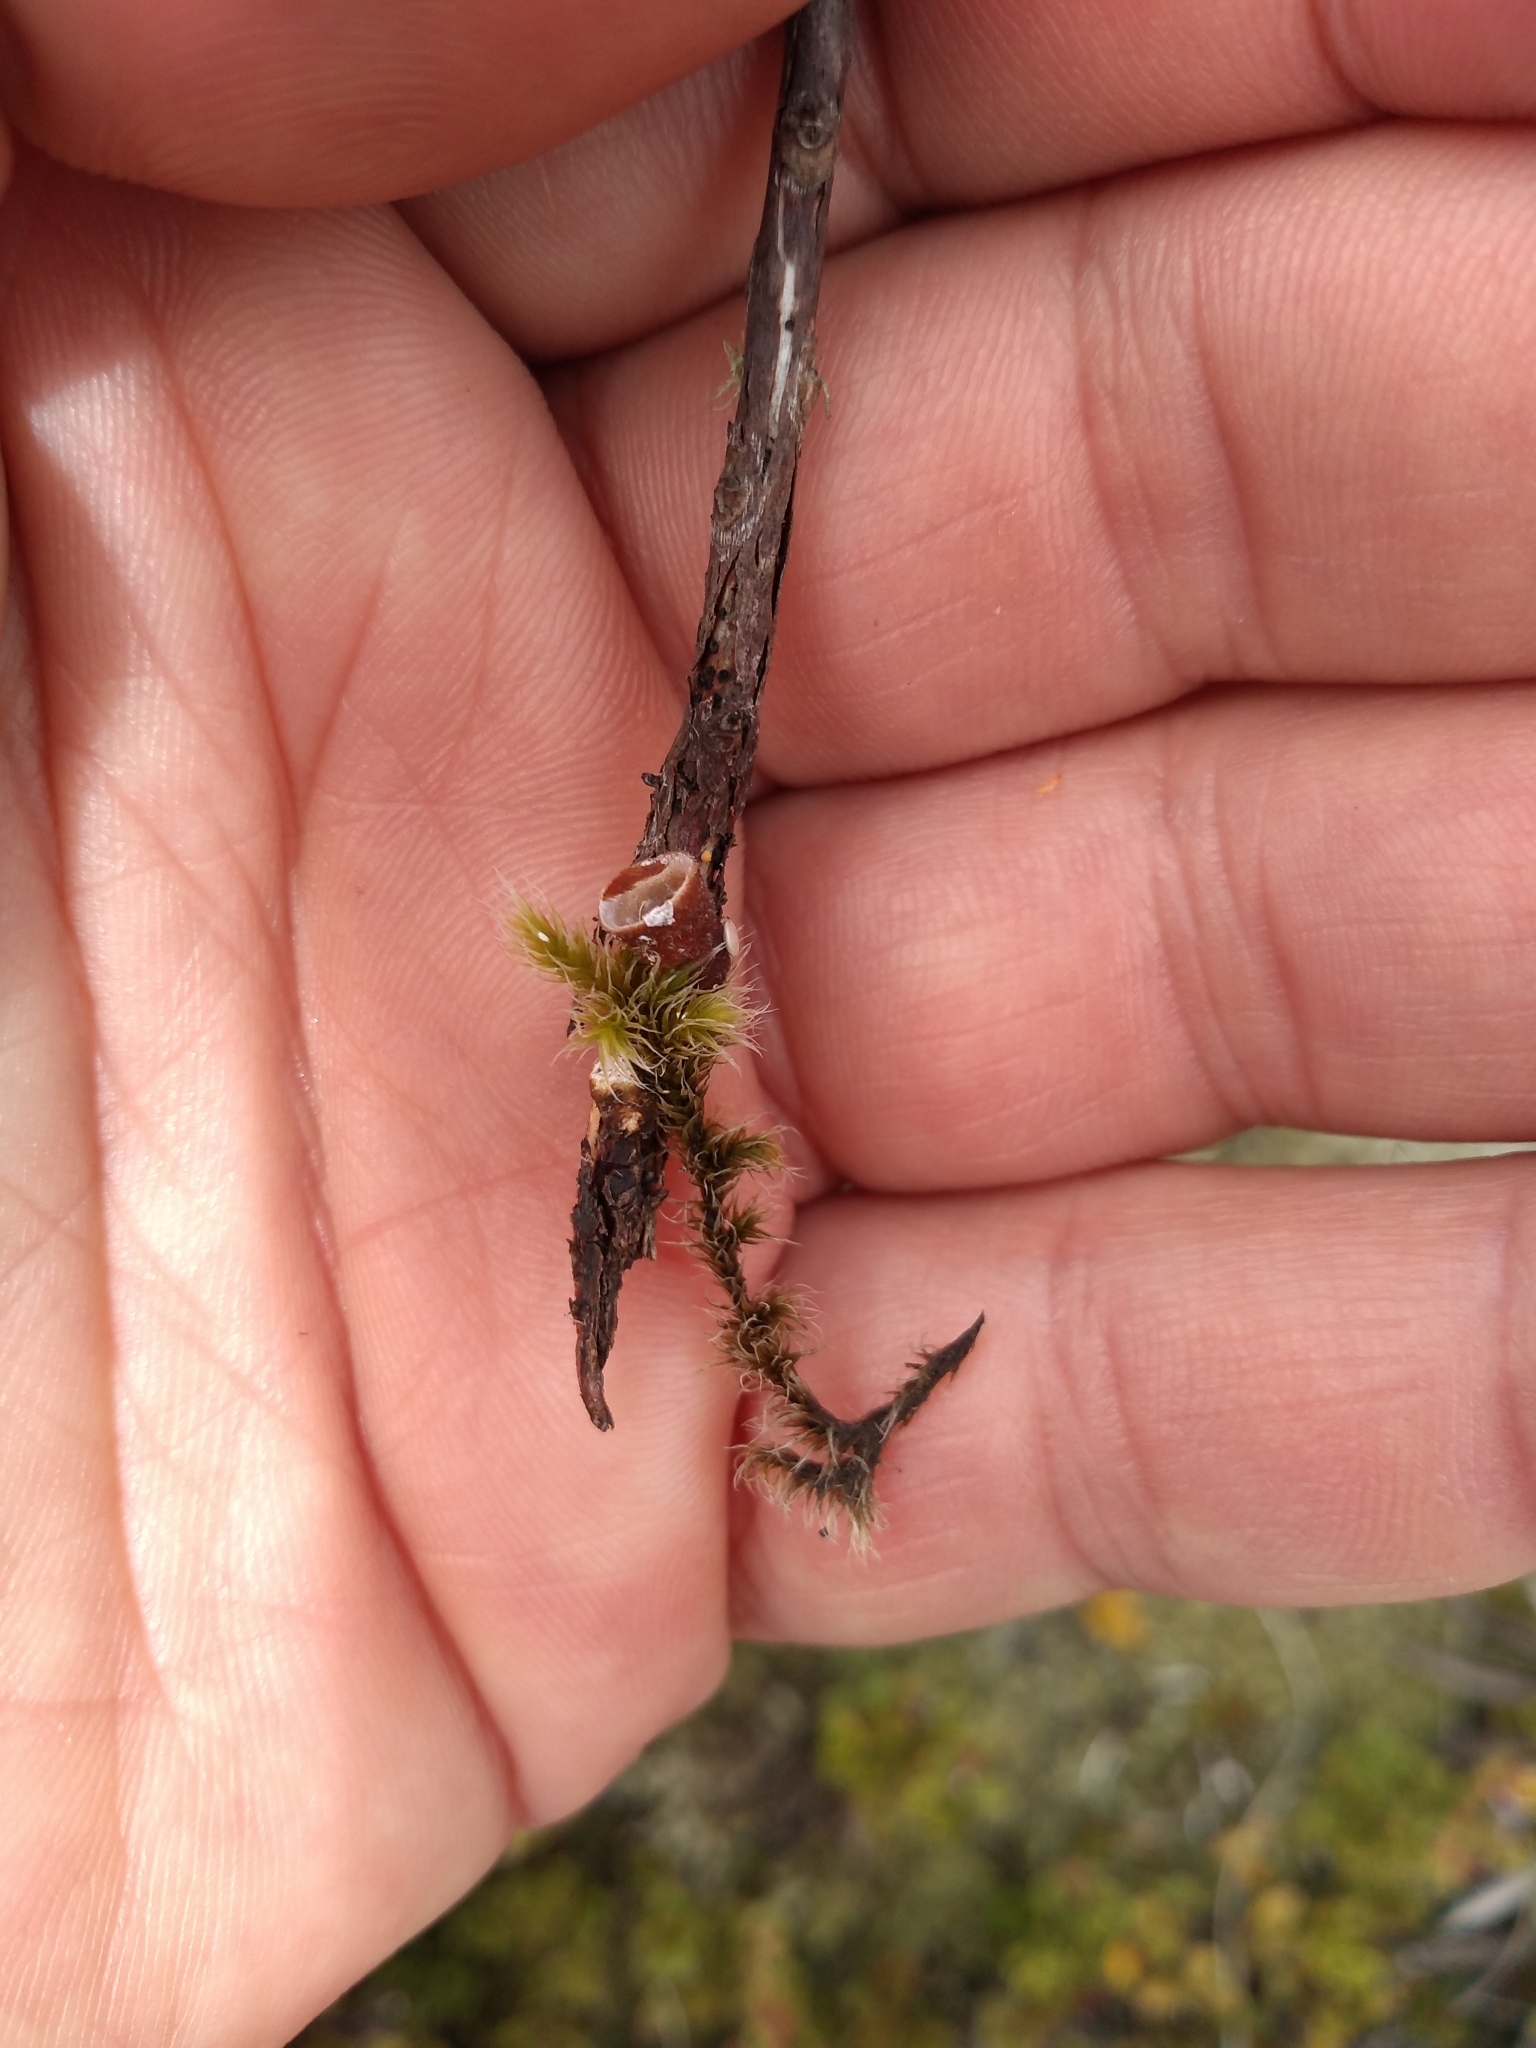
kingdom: Fungi
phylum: Basidiomycota
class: Agaricomycetes
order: Agaricales
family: Nidulariaceae
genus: Crucibulum
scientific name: Crucibulum laeve
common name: Common bird's nest
